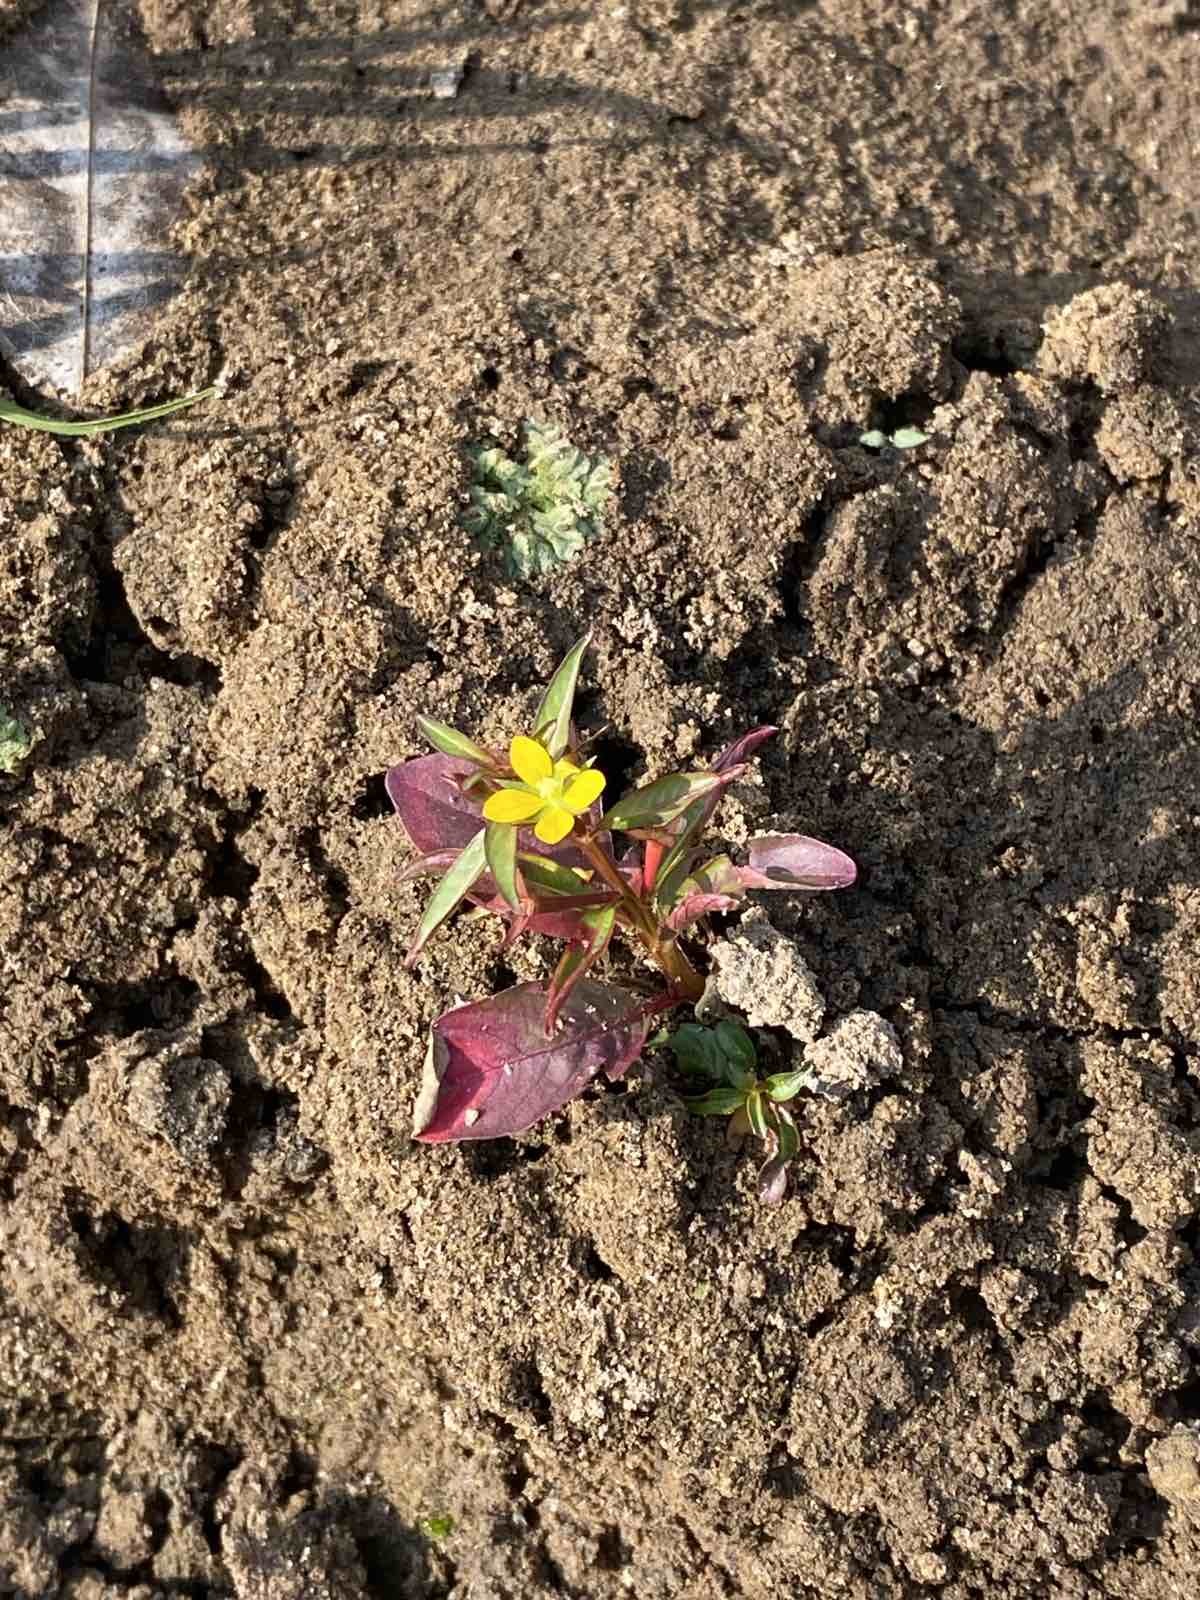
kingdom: Plantae
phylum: Tracheophyta
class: Magnoliopsida
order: Myrtales
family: Onagraceae
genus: Ludwigia
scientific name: Ludwigia hyssopifolia
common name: Linear leaf water primrose
